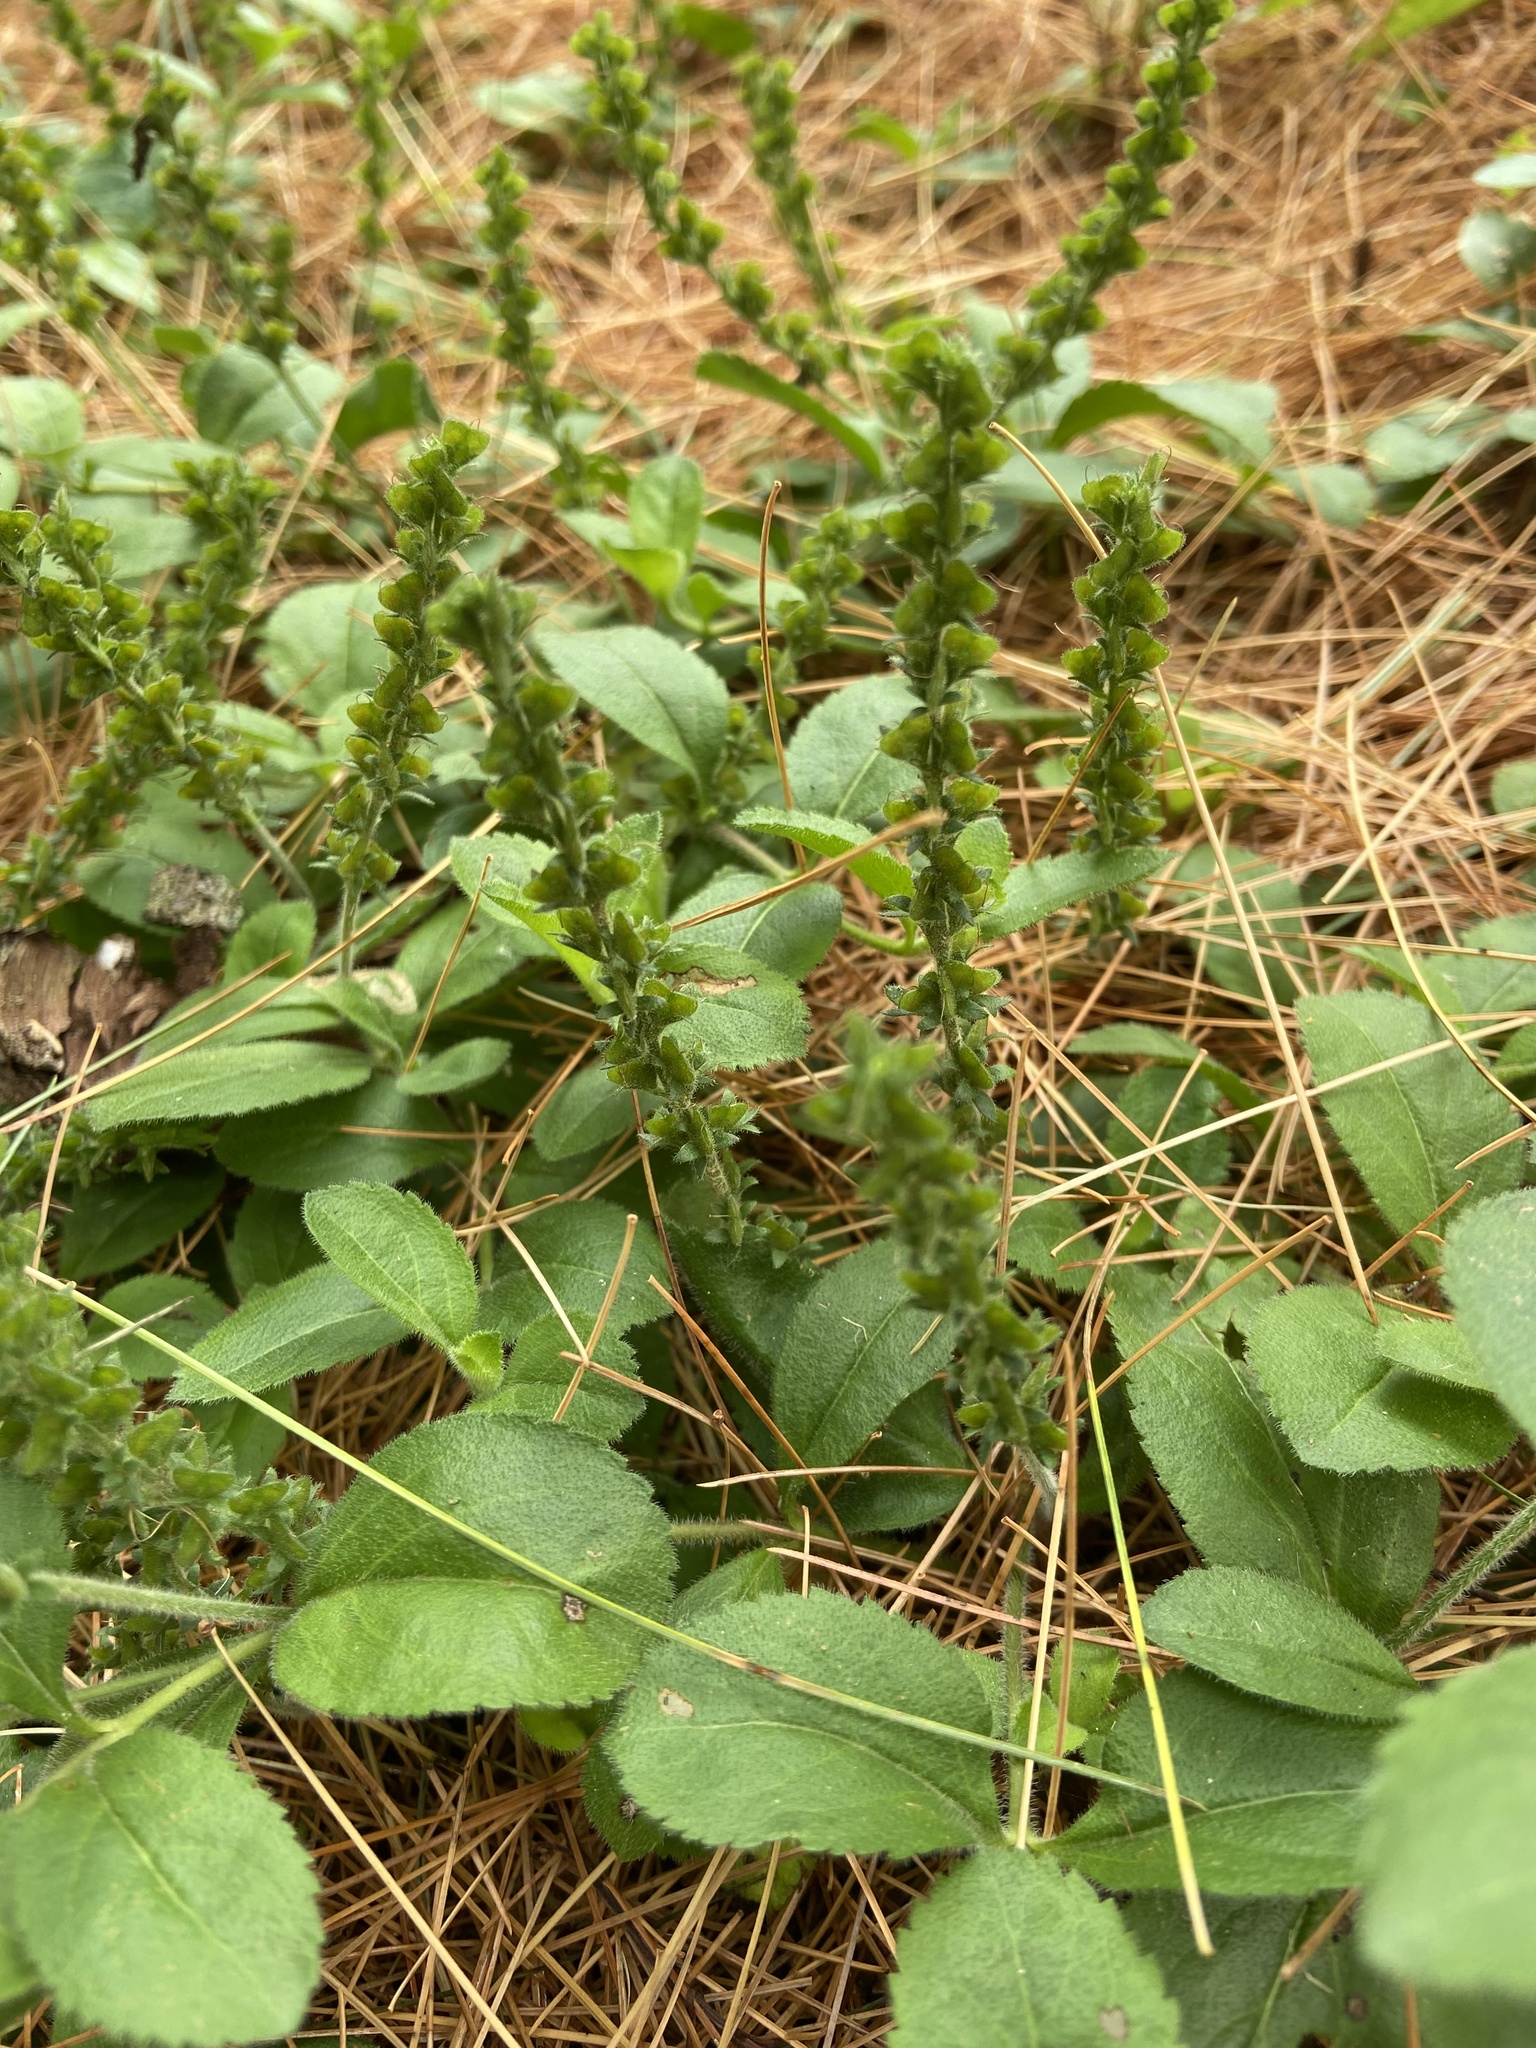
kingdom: Plantae
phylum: Tracheophyta
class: Magnoliopsida
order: Lamiales
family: Plantaginaceae
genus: Veronica
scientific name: Veronica officinalis
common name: Common speedwell
